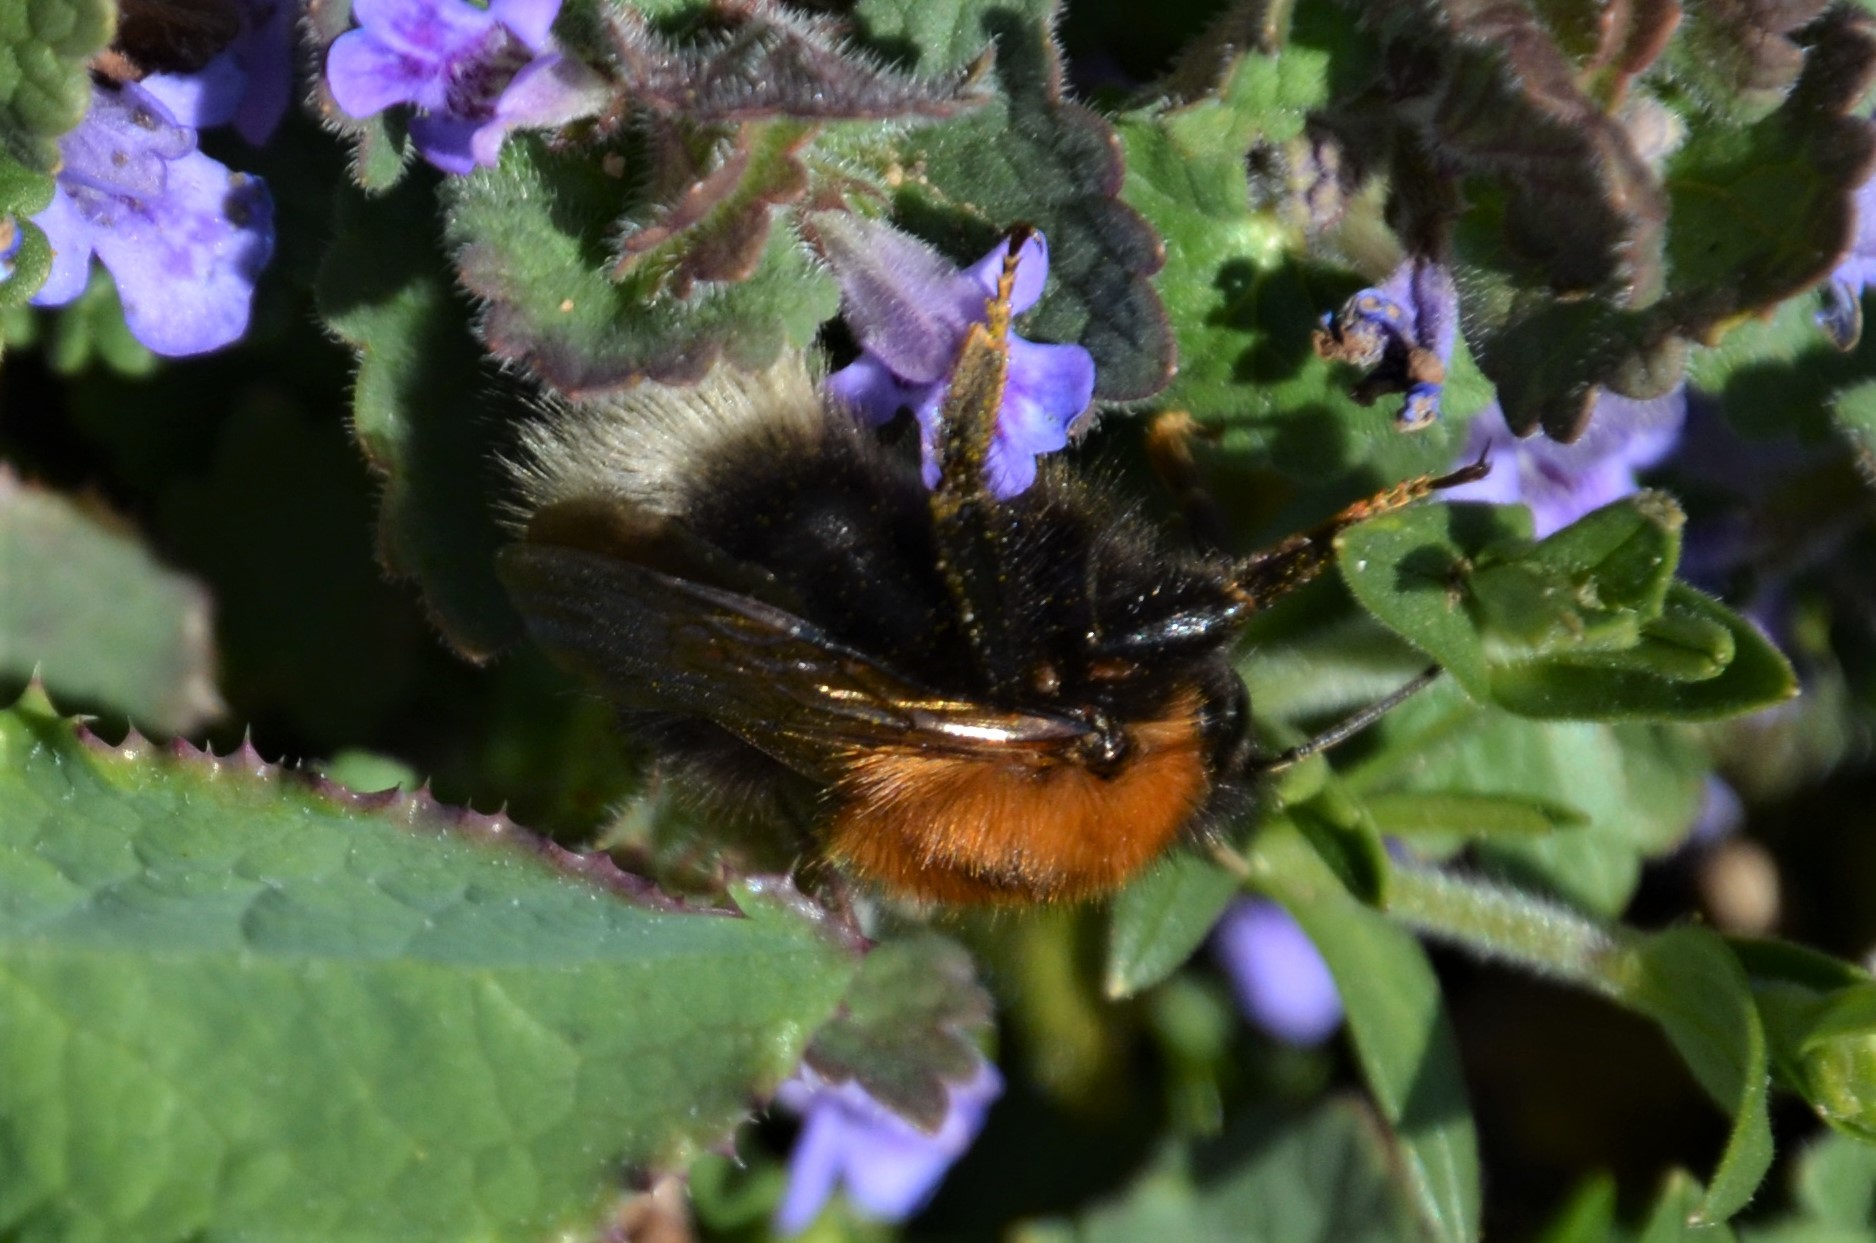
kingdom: Animalia
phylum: Arthropoda
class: Insecta
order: Hymenoptera
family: Apidae
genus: Bombus
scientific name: Bombus hypnorum
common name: New garden bumblebee
